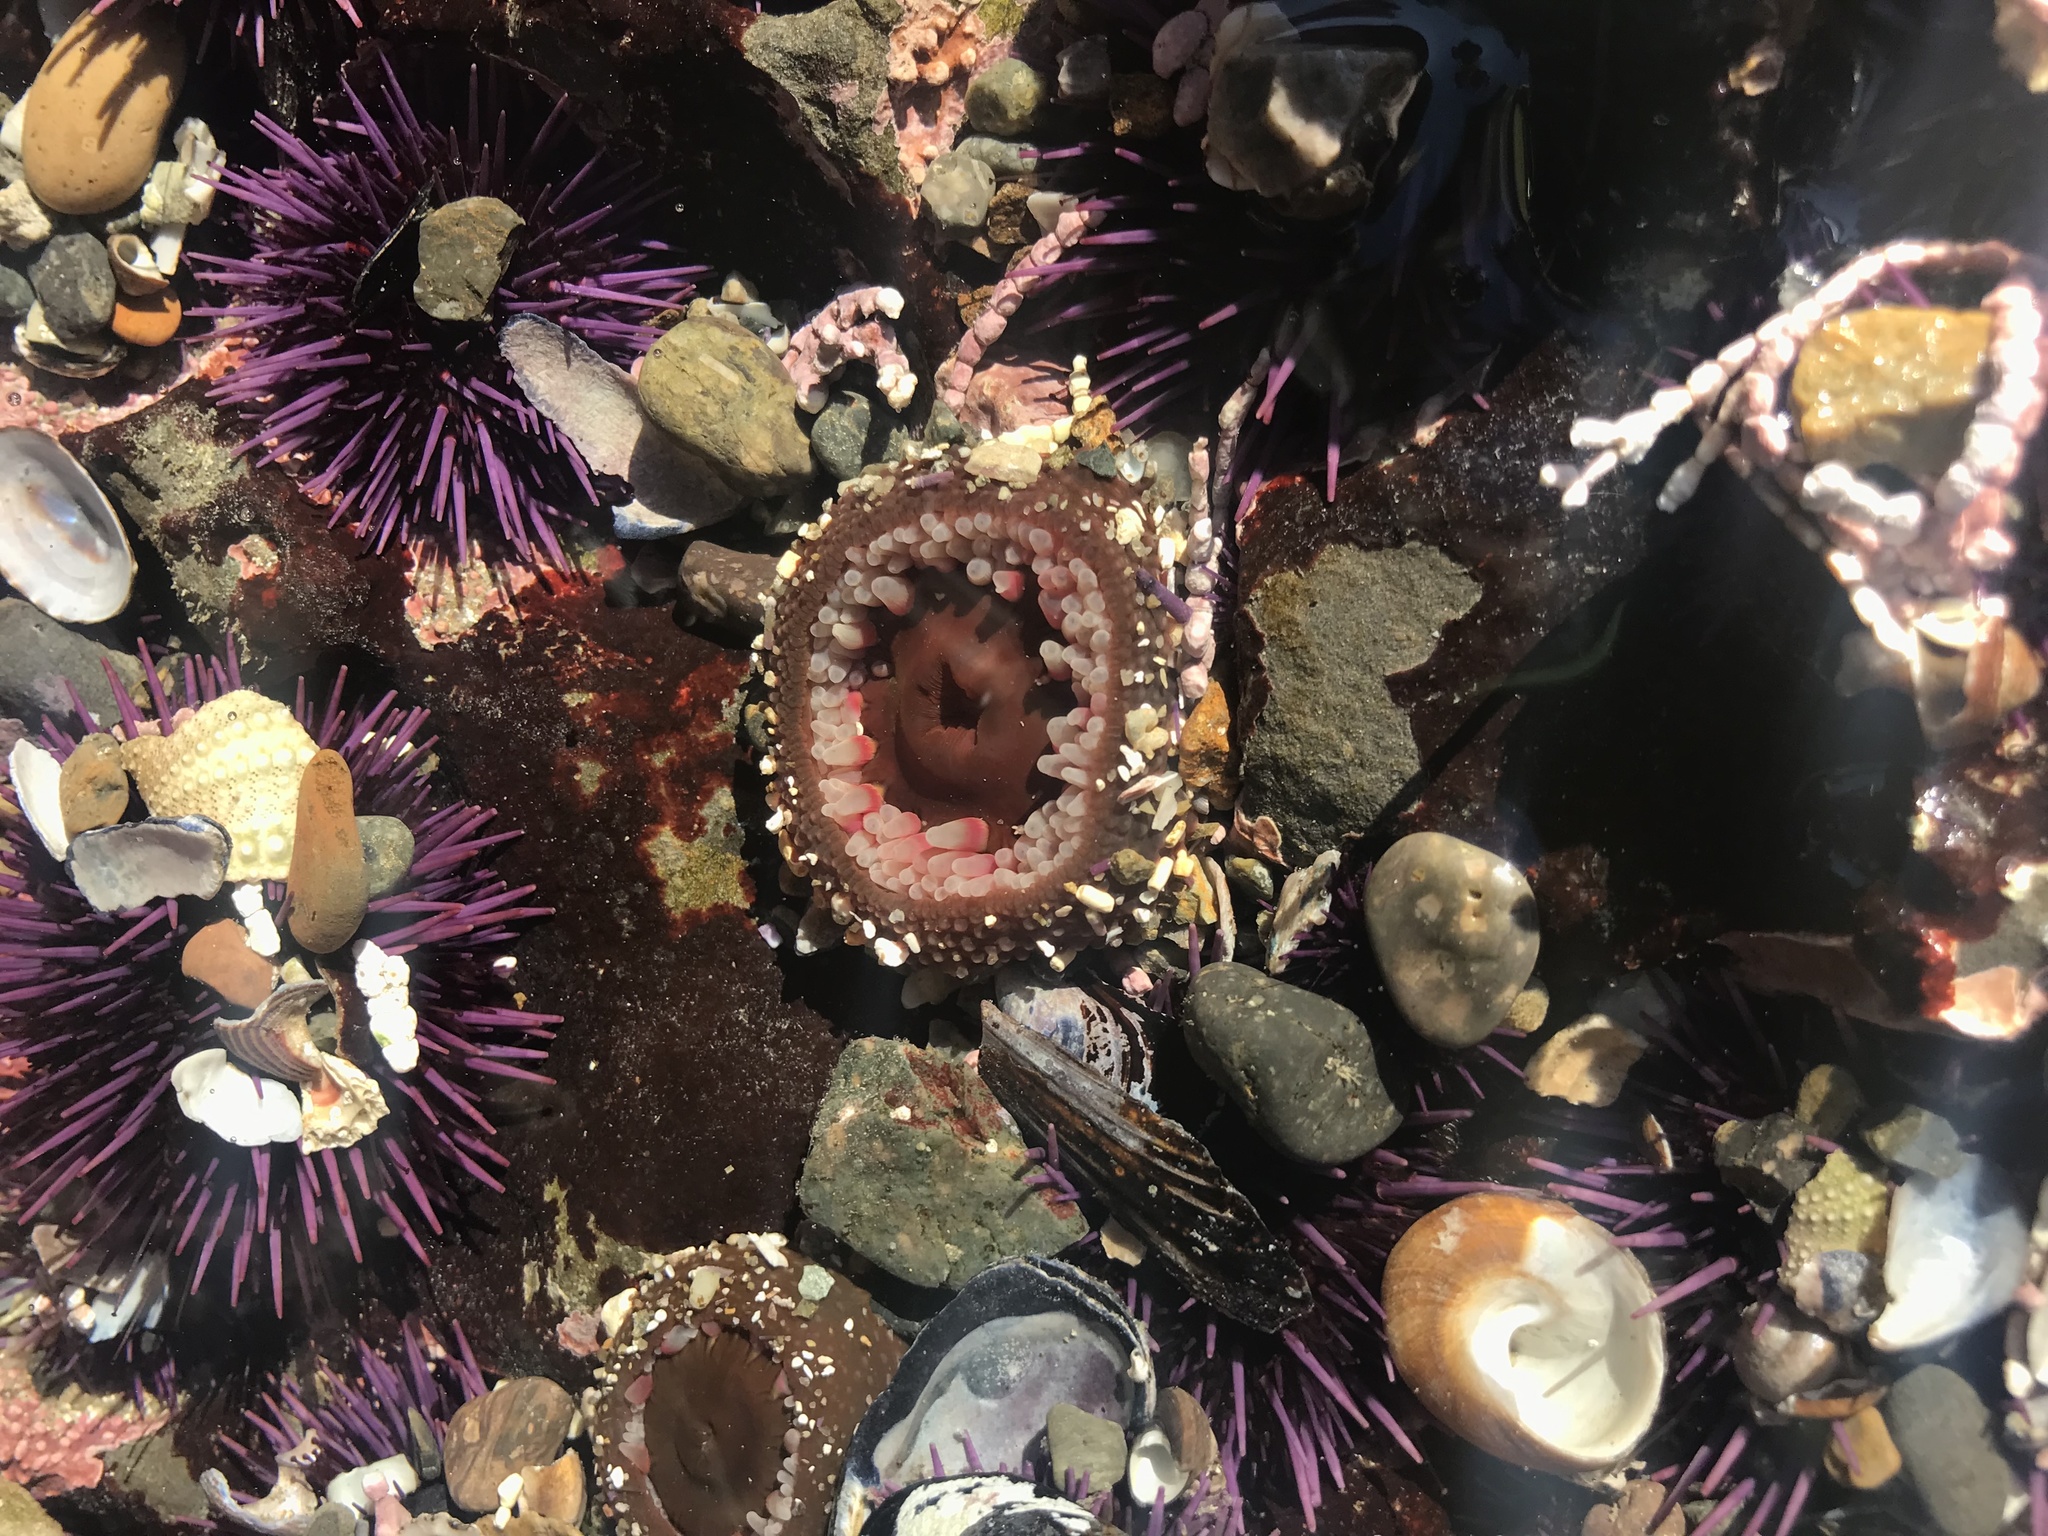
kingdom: Animalia
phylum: Cnidaria
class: Anthozoa
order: Actiniaria
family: Actiniidae
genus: Urticina
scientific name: Urticina clandestina
